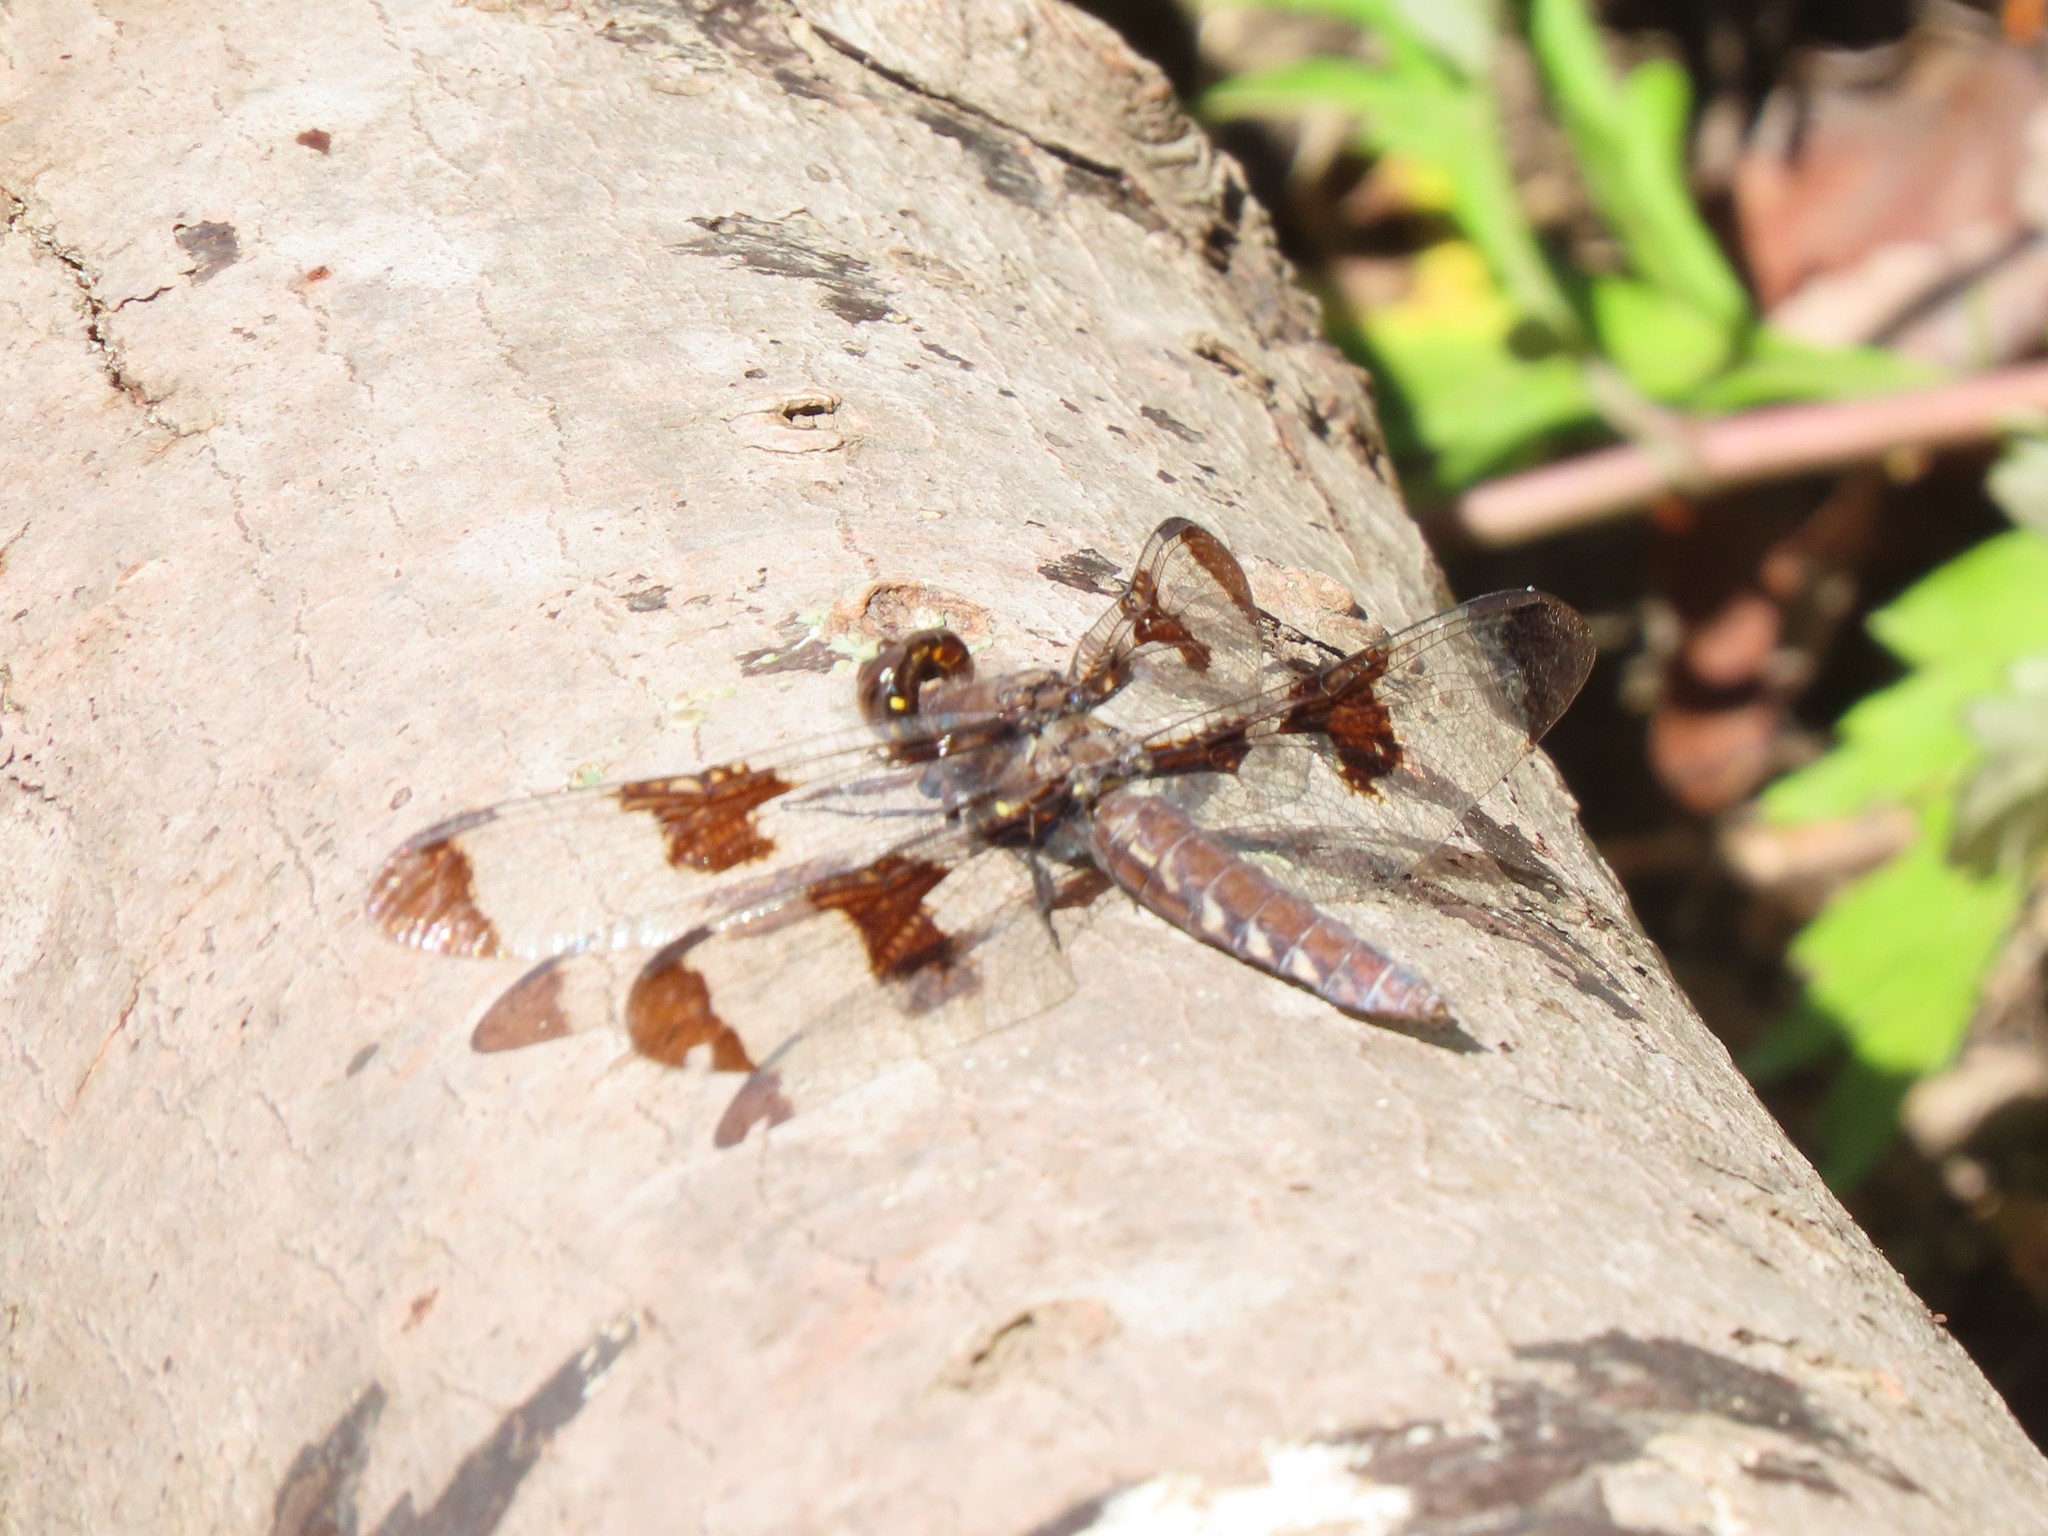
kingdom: Animalia
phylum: Arthropoda
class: Insecta
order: Odonata
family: Libellulidae
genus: Plathemis
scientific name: Plathemis lydia
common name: Common whitetail
